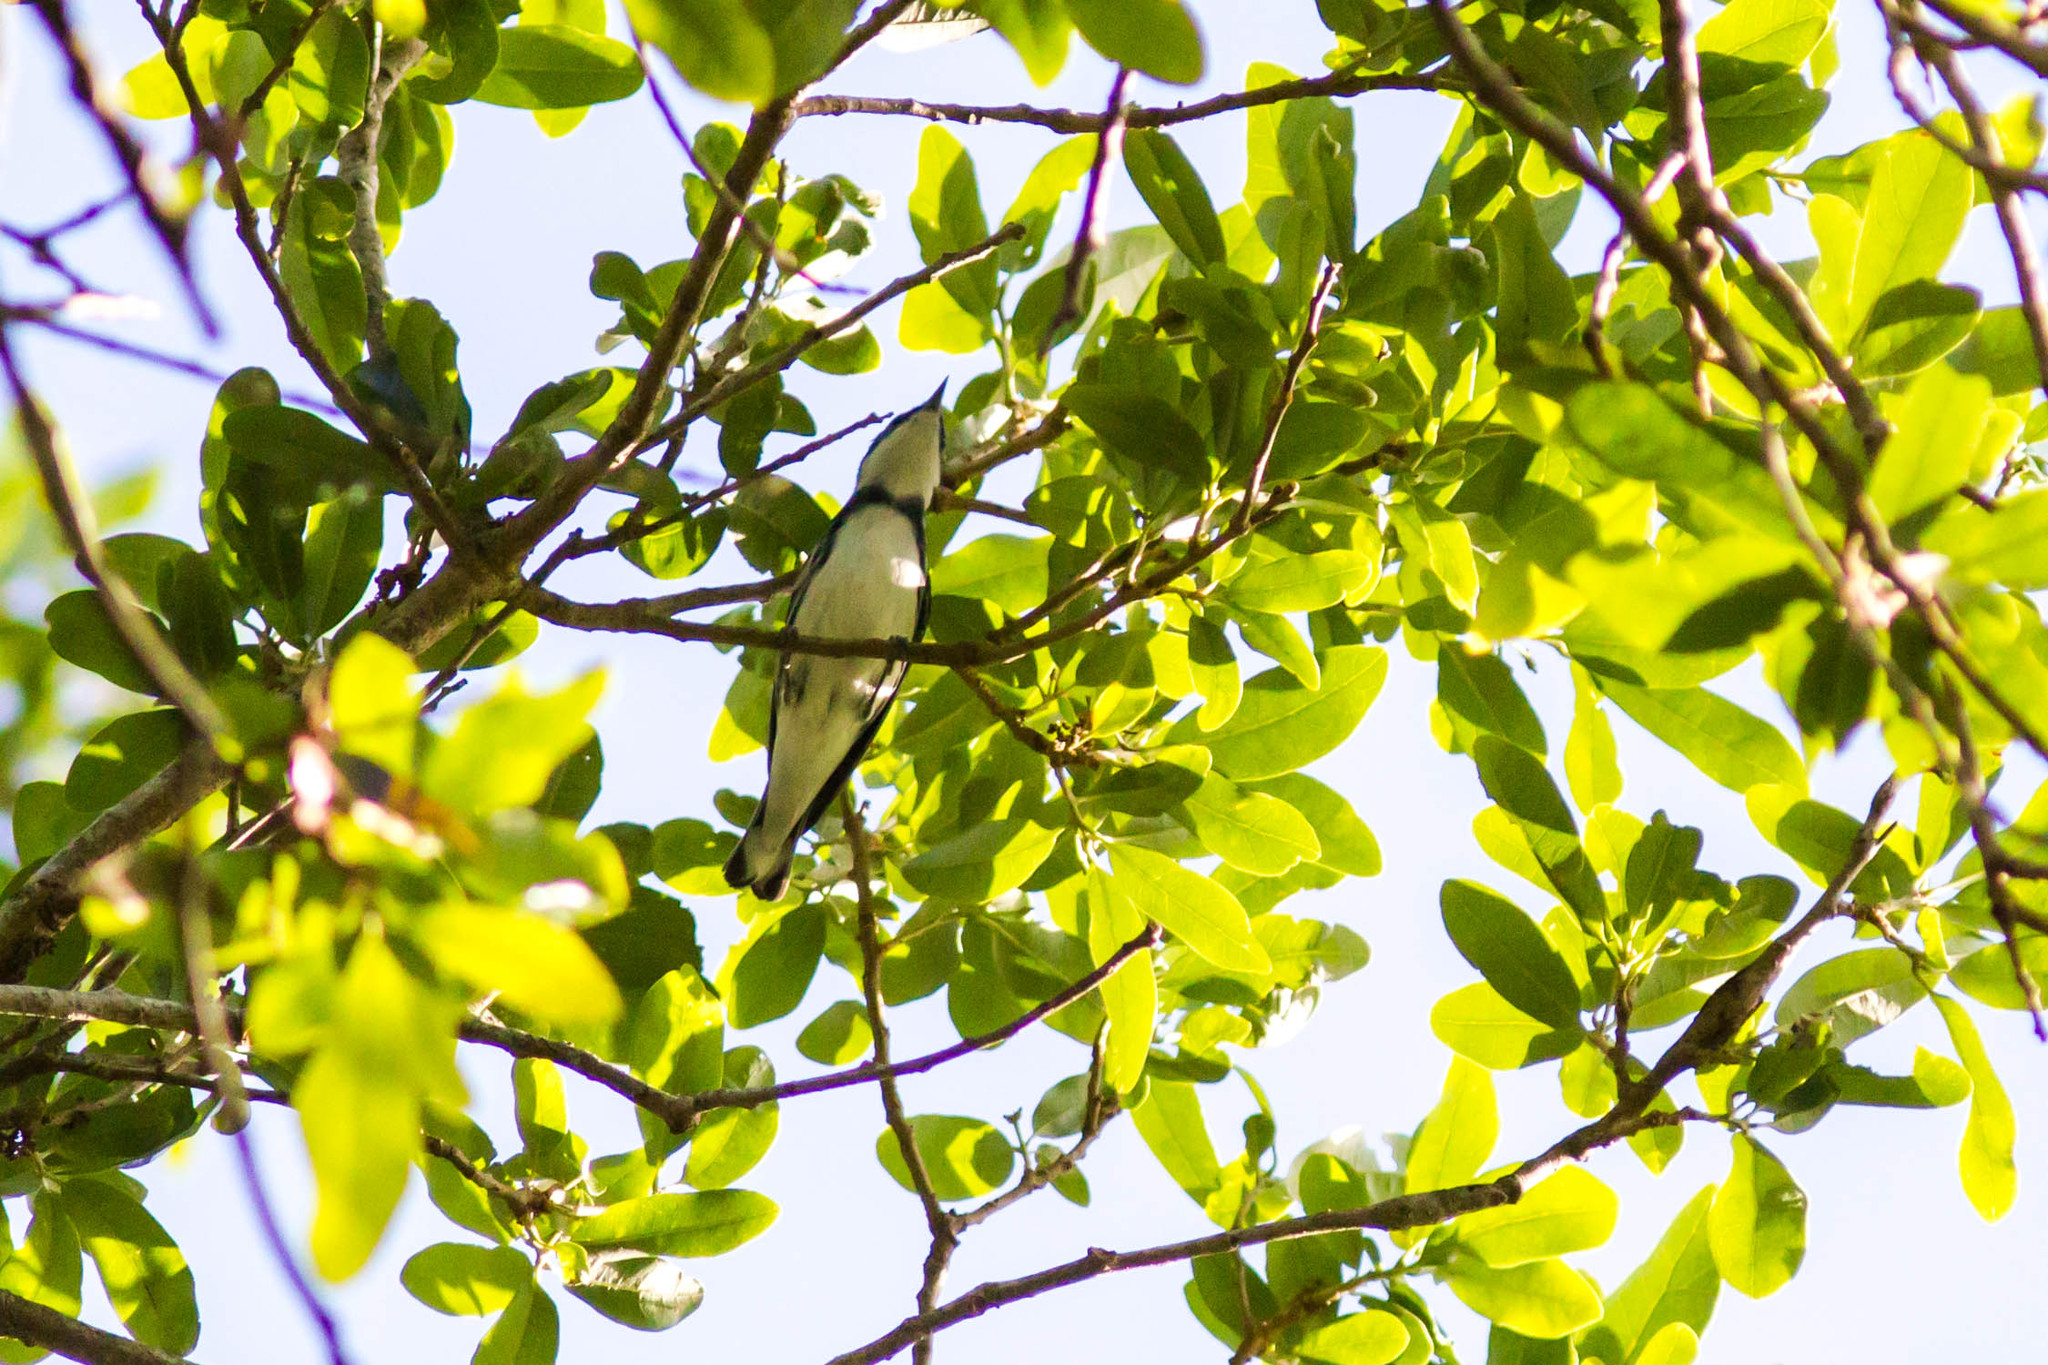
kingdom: Animalia
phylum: Chordata
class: Aves
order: Passeriformes
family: Parulidae
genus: Setophaga
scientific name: Setophaga cerulea
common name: Cerulean warbler
